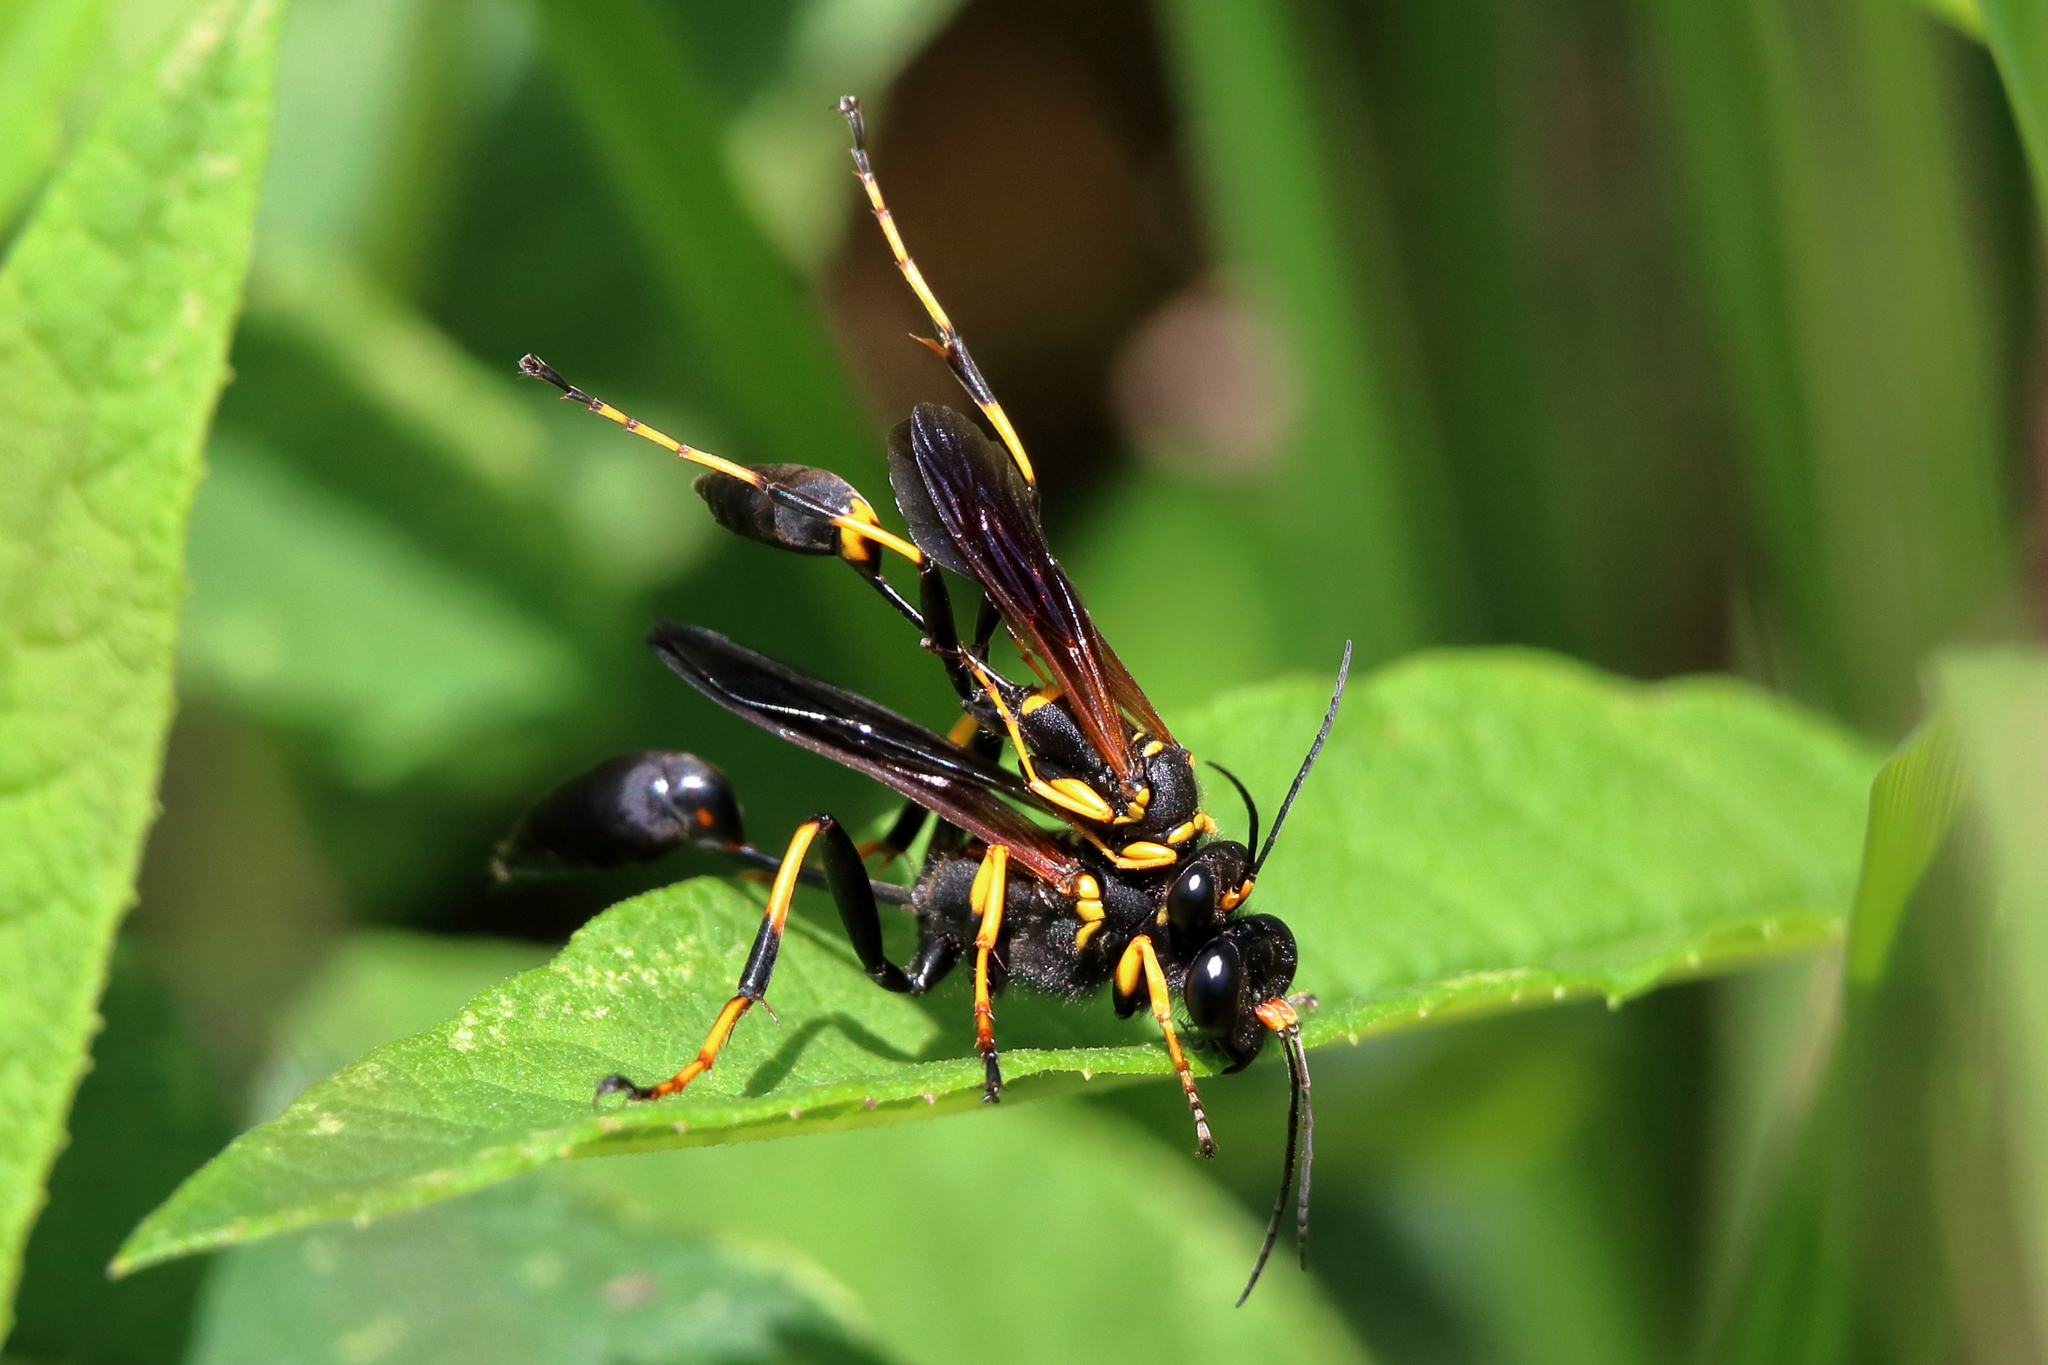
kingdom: Animalia
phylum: Arthropoda
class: Insecta
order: Hymenoptera
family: Sphecidae
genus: Sceliphron
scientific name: Sceliphron caementarium
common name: Mud dauber
